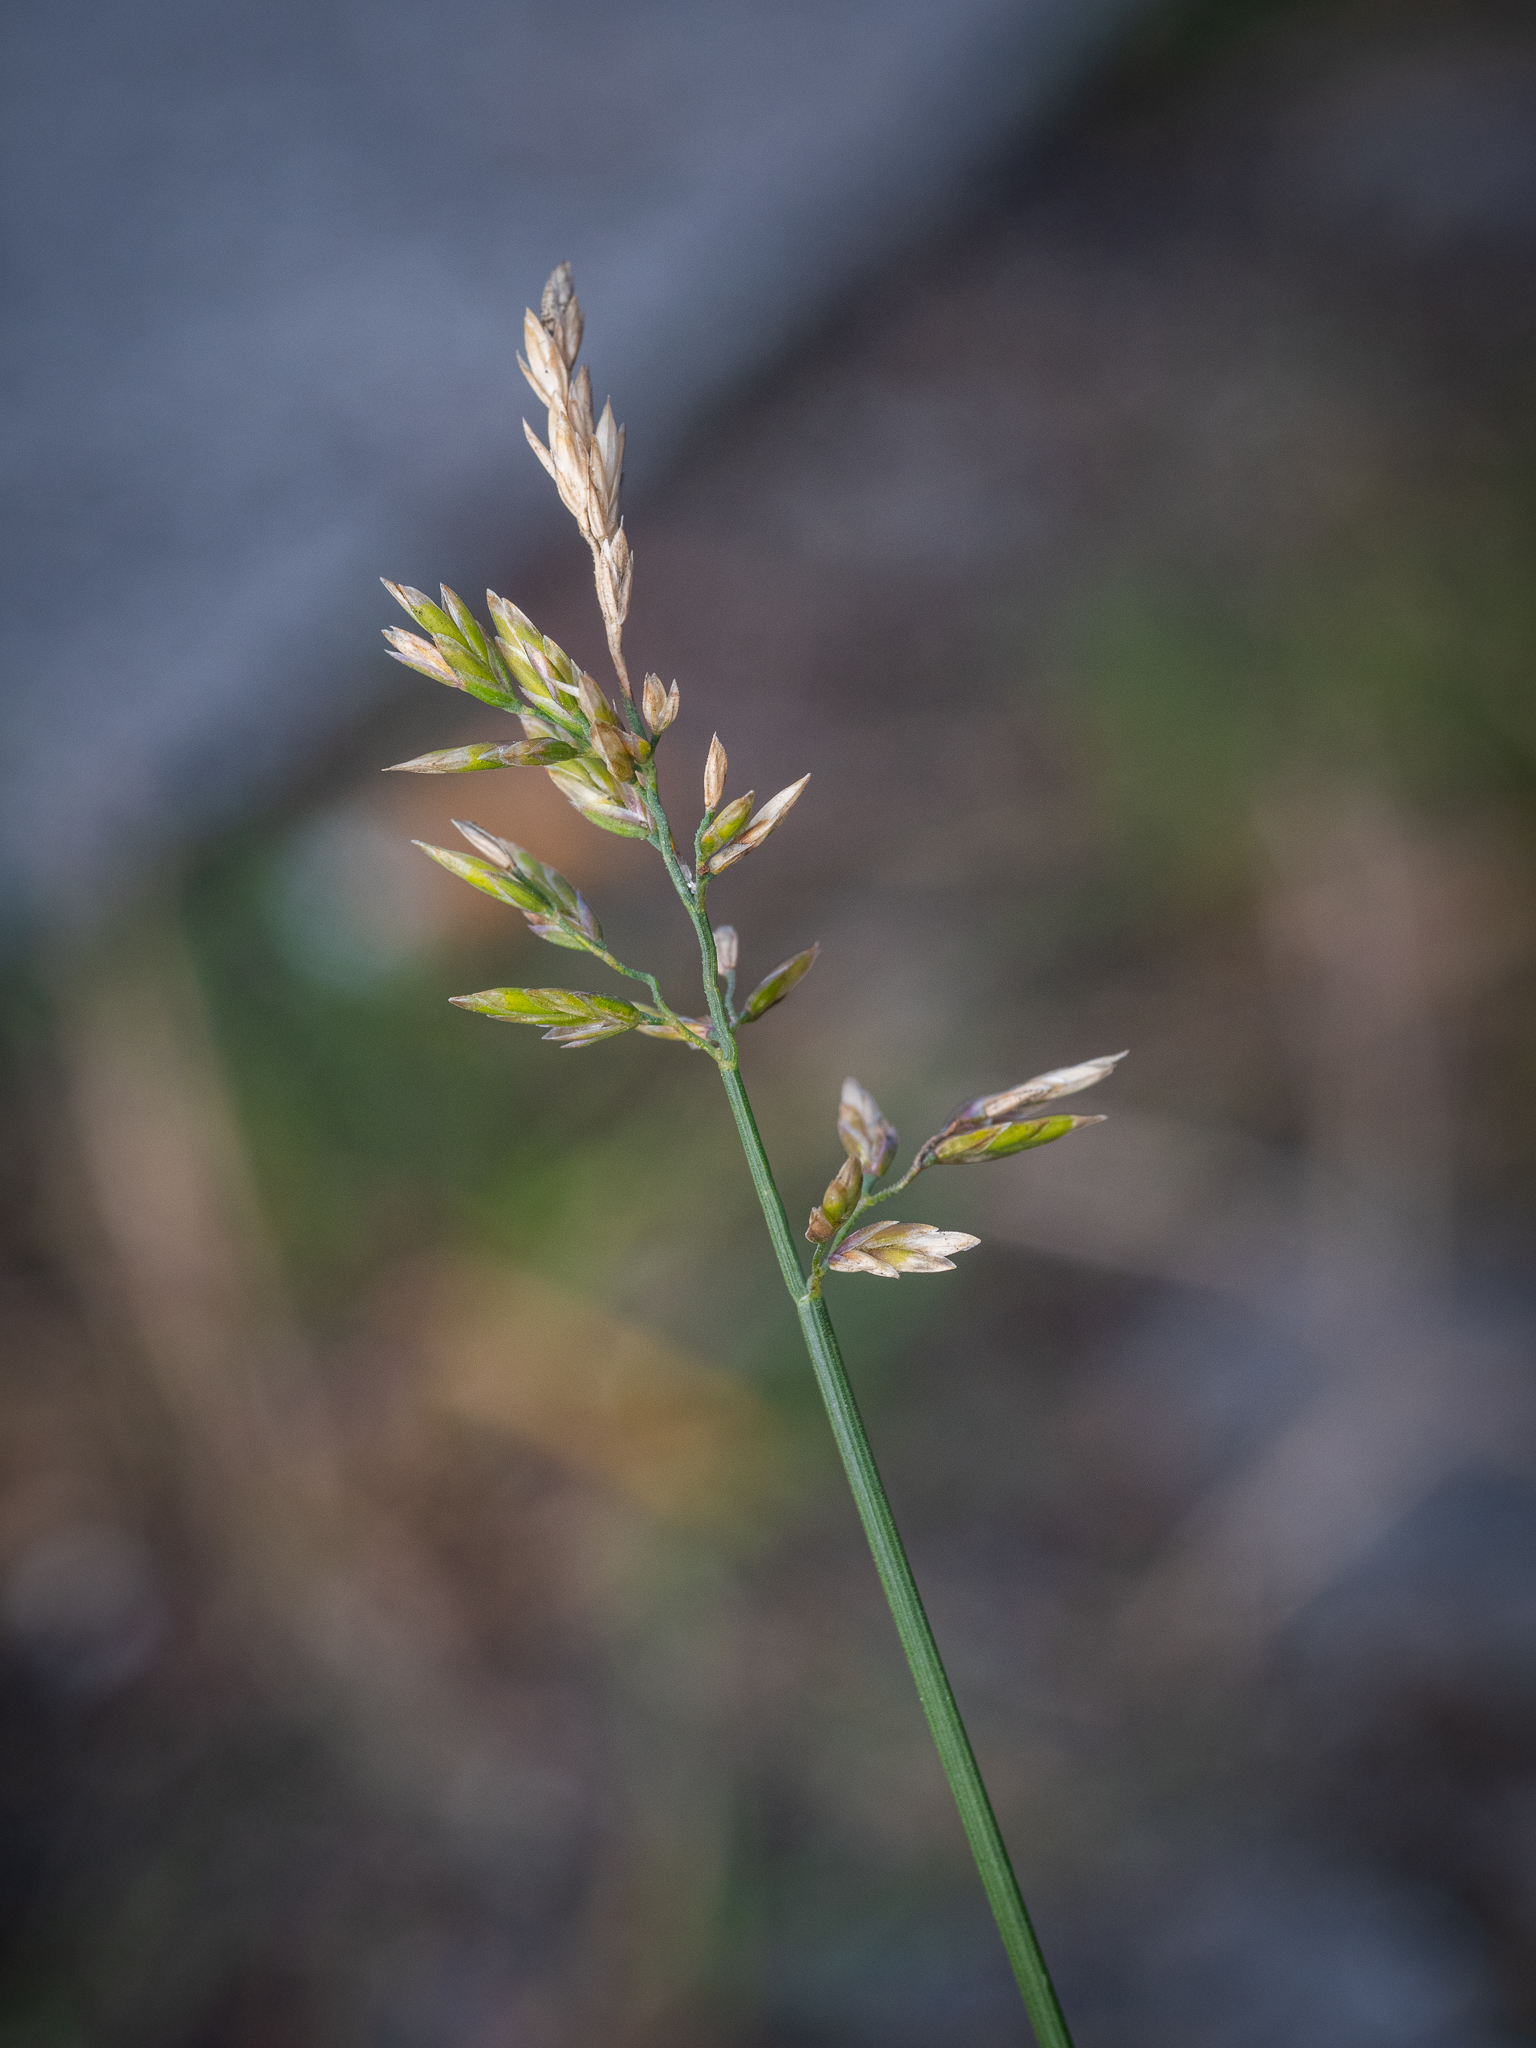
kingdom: Plantae
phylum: Tracheophyta
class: Liliopsida
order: Poales
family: Poaceae
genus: Poa
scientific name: Poa compressa
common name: Canada bluegrass
